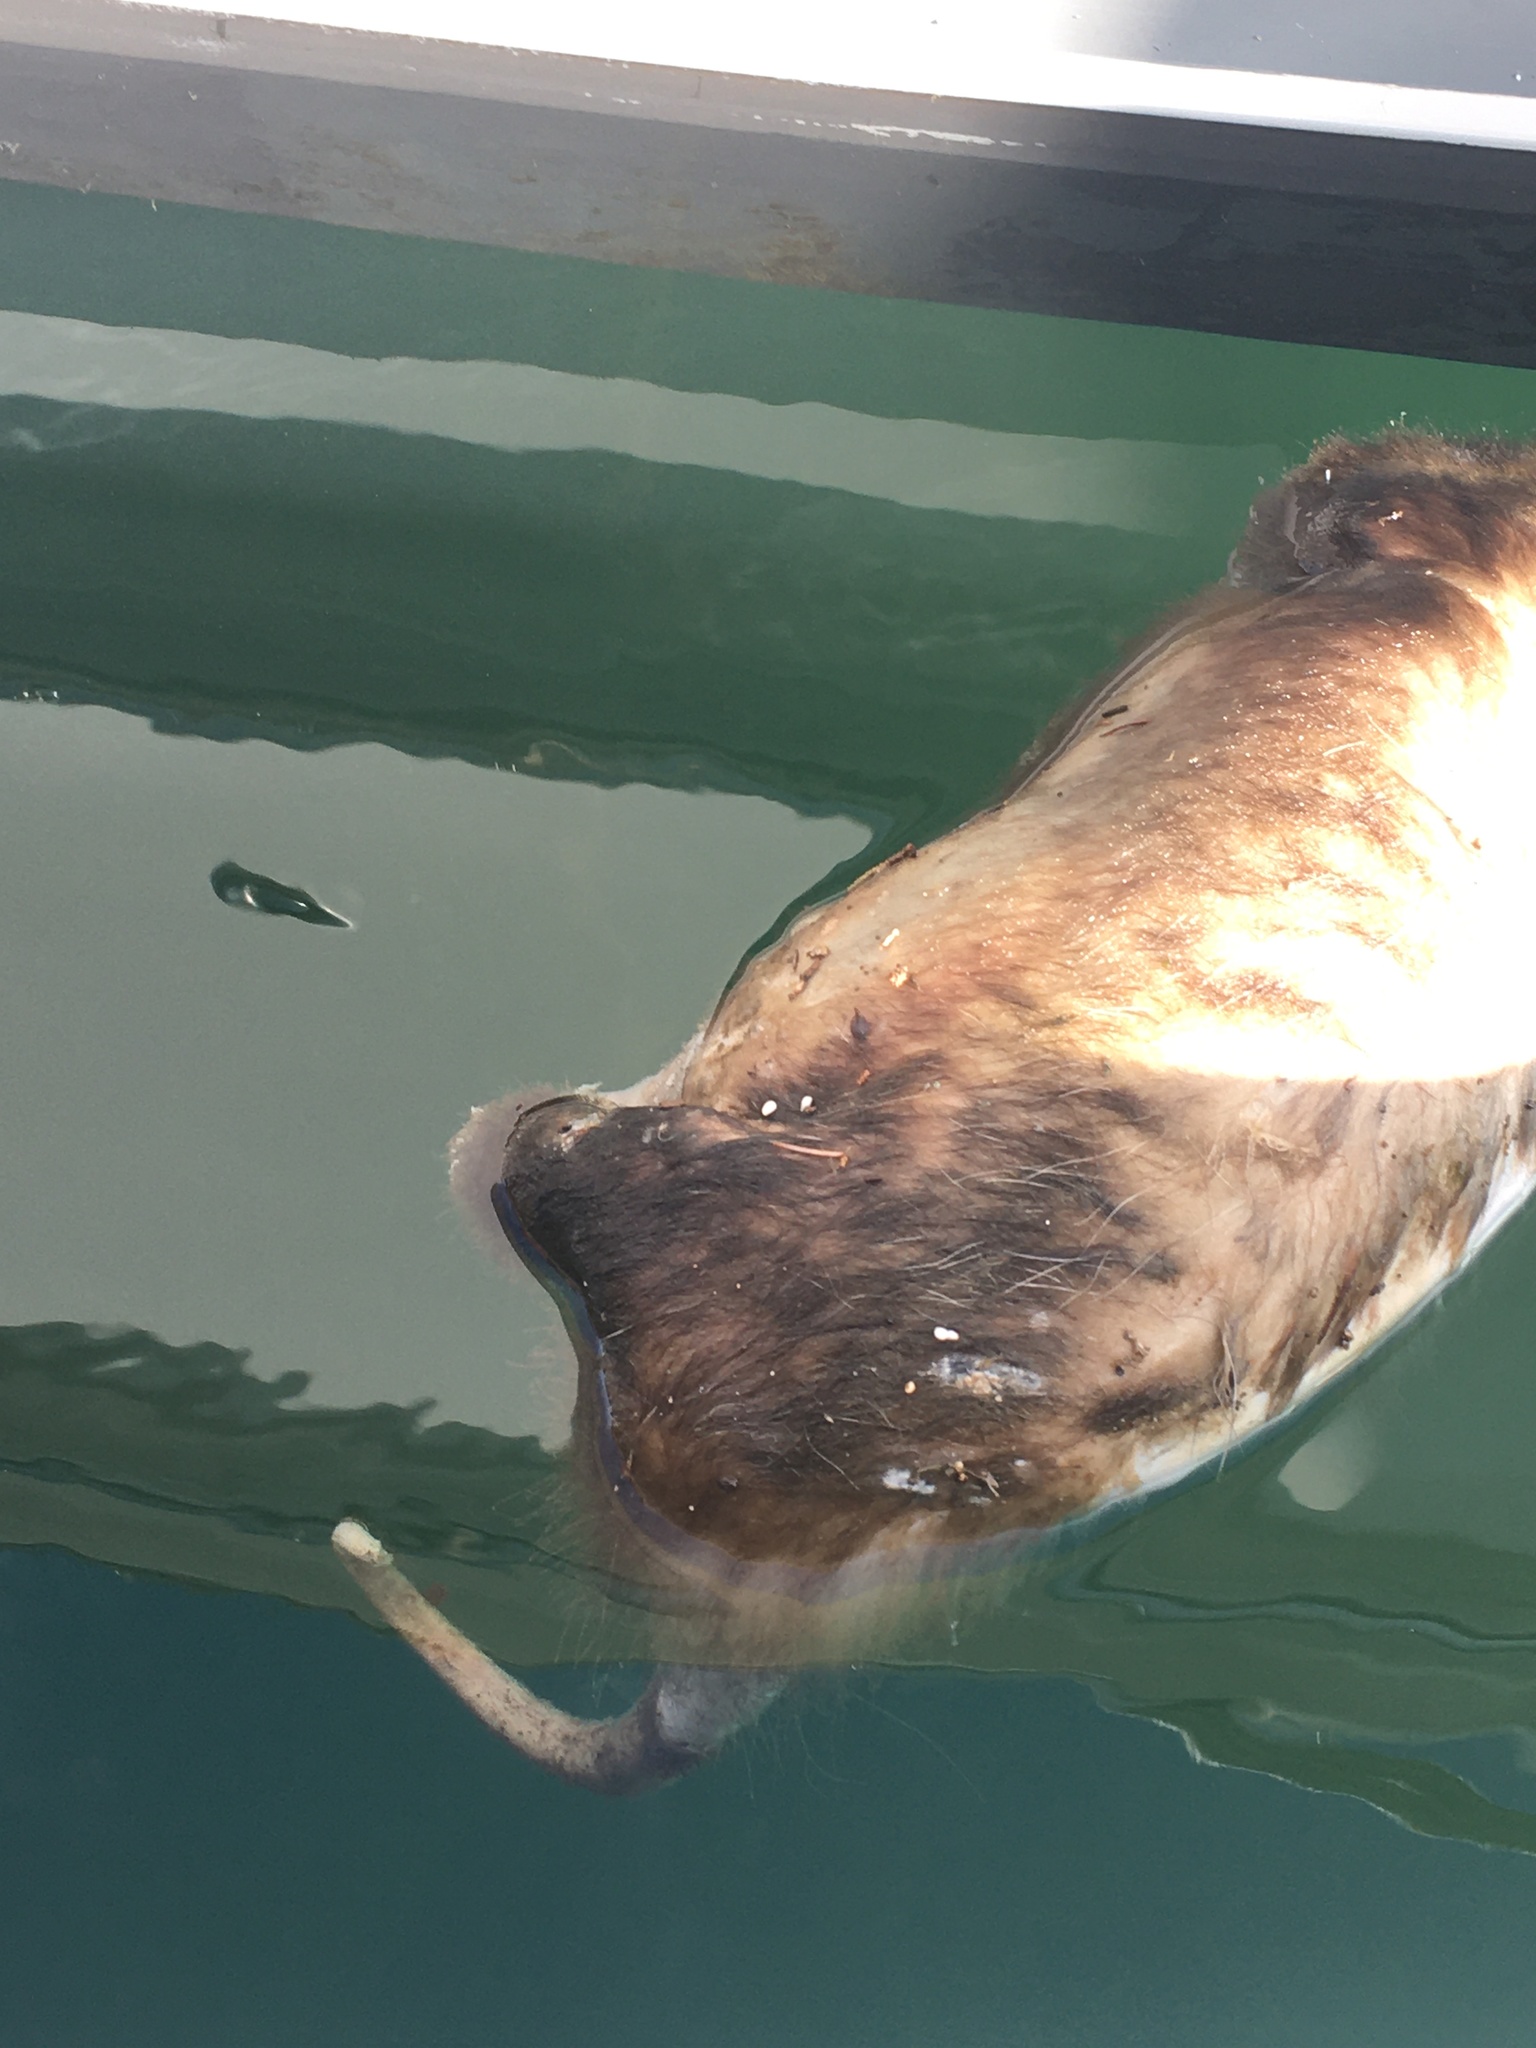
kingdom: Animalia
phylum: Chordata
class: Mammalia
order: Didelphimorphia
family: Didelphidae
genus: Didelphis
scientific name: Didelphis virginiana
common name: Virginia opossum
